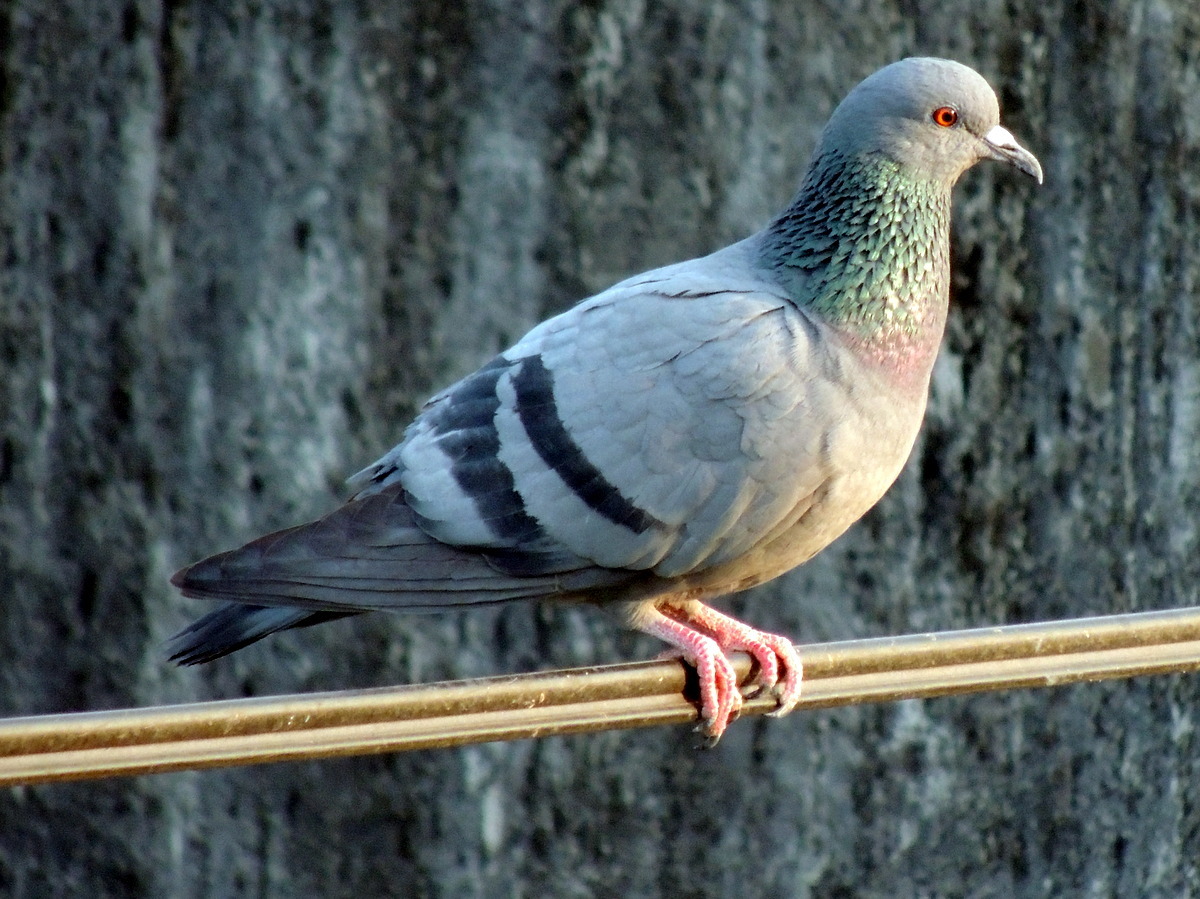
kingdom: Animalia
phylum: Chordata
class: Aves
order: Columbiformes
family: Columbidae
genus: Columba
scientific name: Columba livia
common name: Rock pigeon
